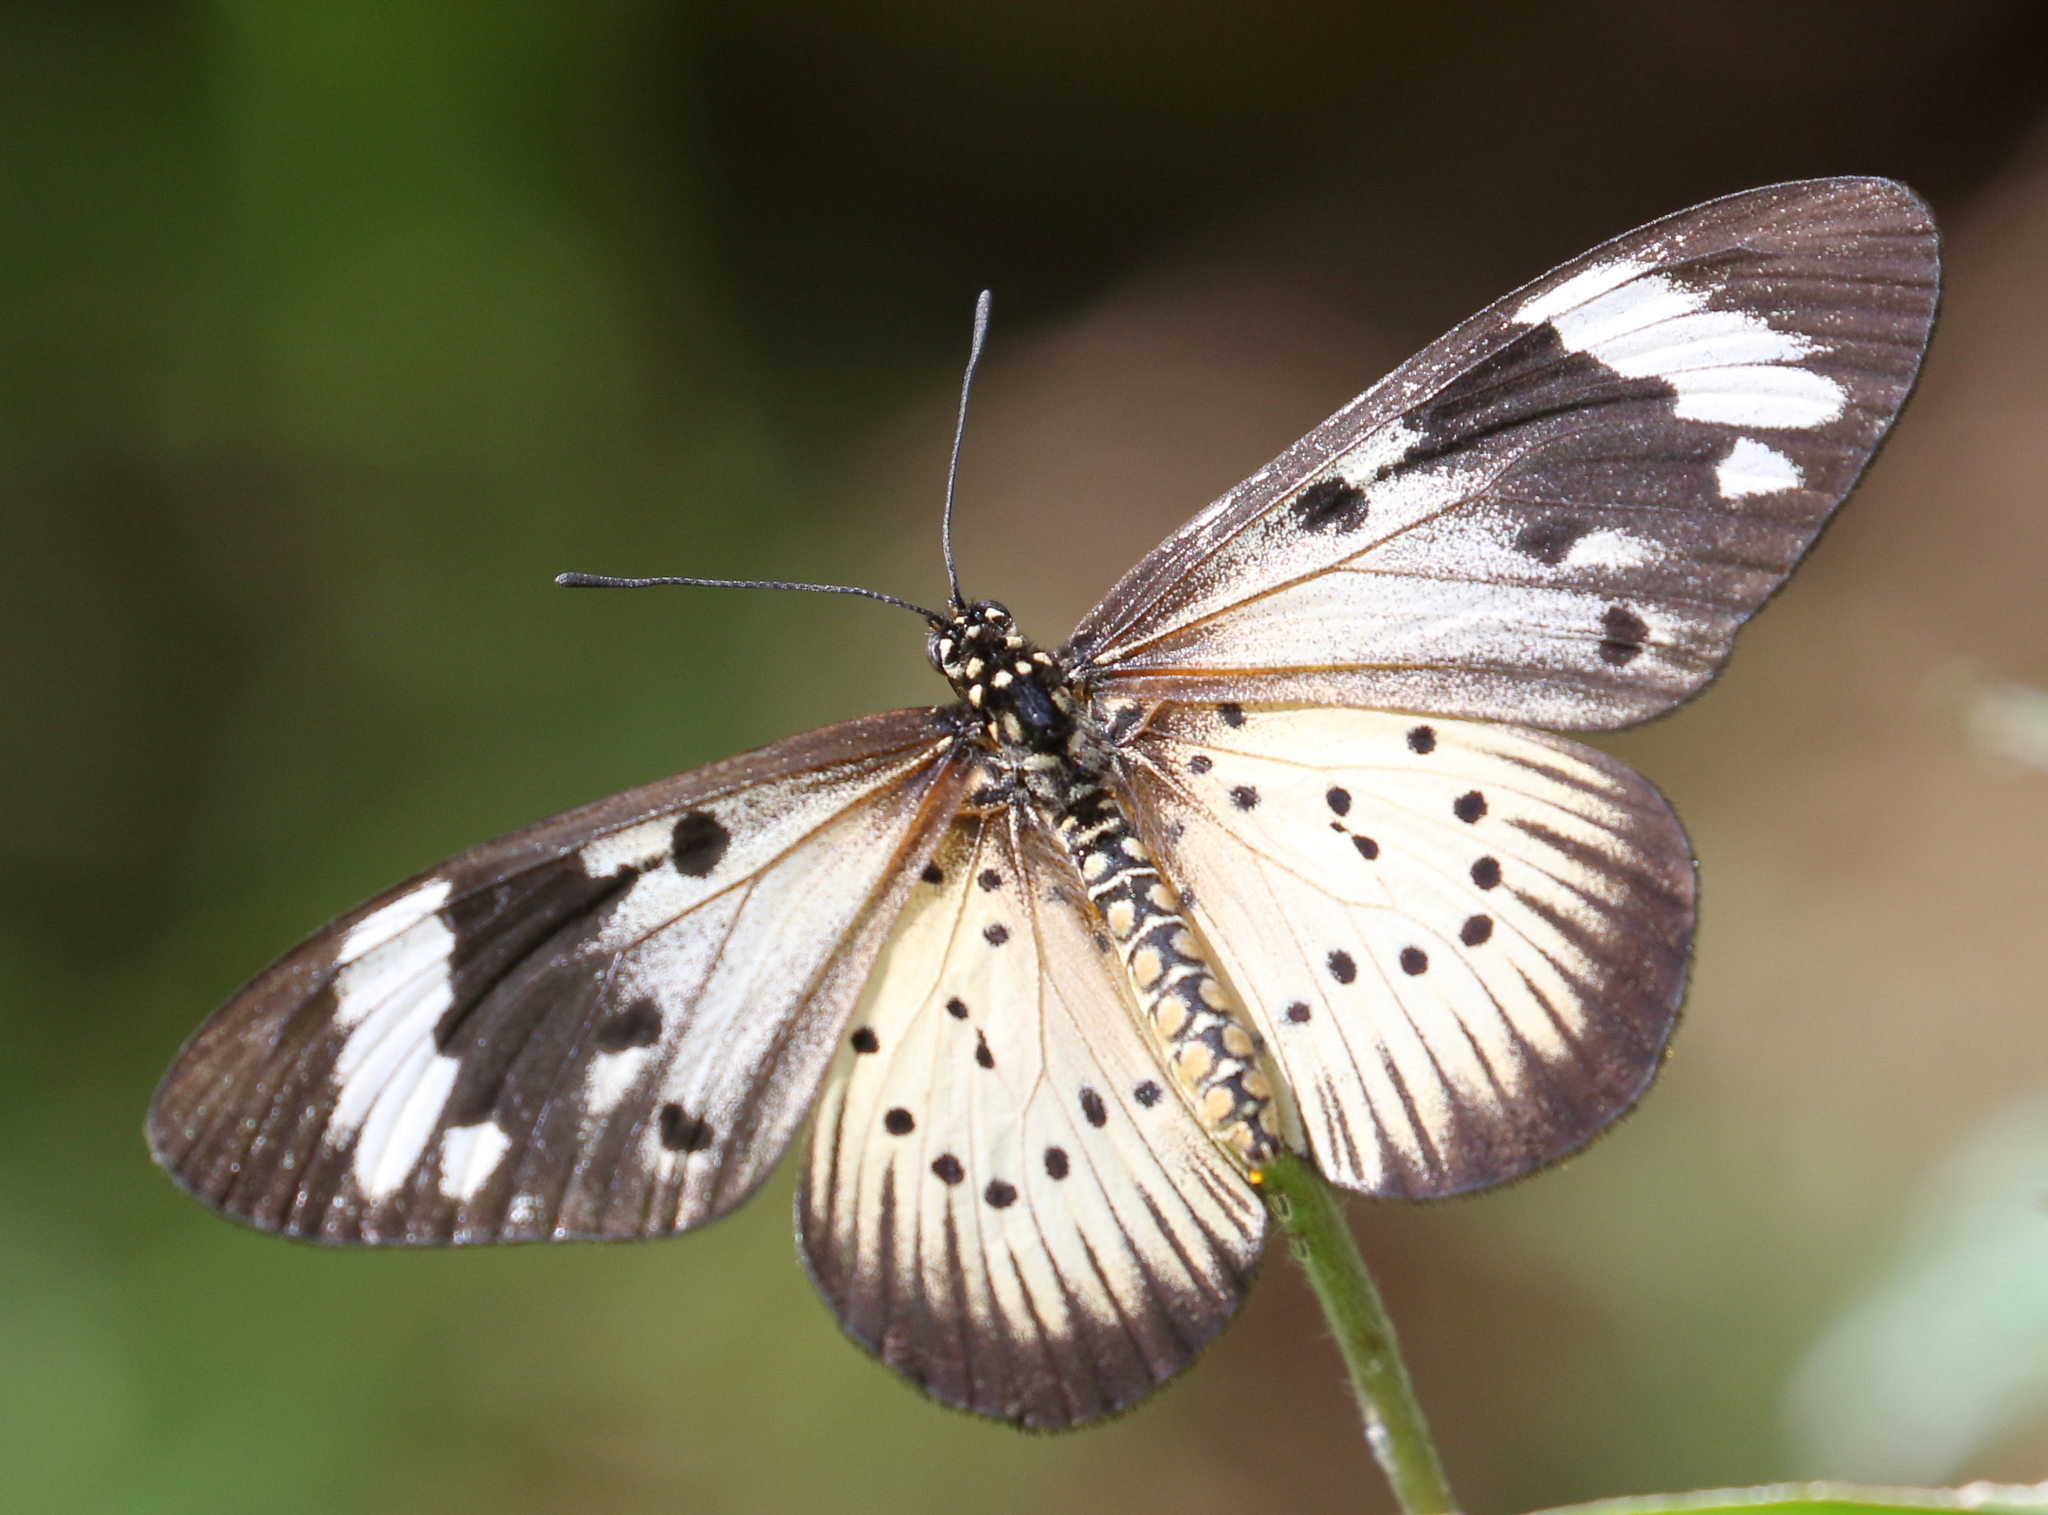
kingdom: Animalia
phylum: Arthropoda
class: Insecta
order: Lepidoptera
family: Nymphalidae
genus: Acraea
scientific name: Acraea Telchinia encedon
